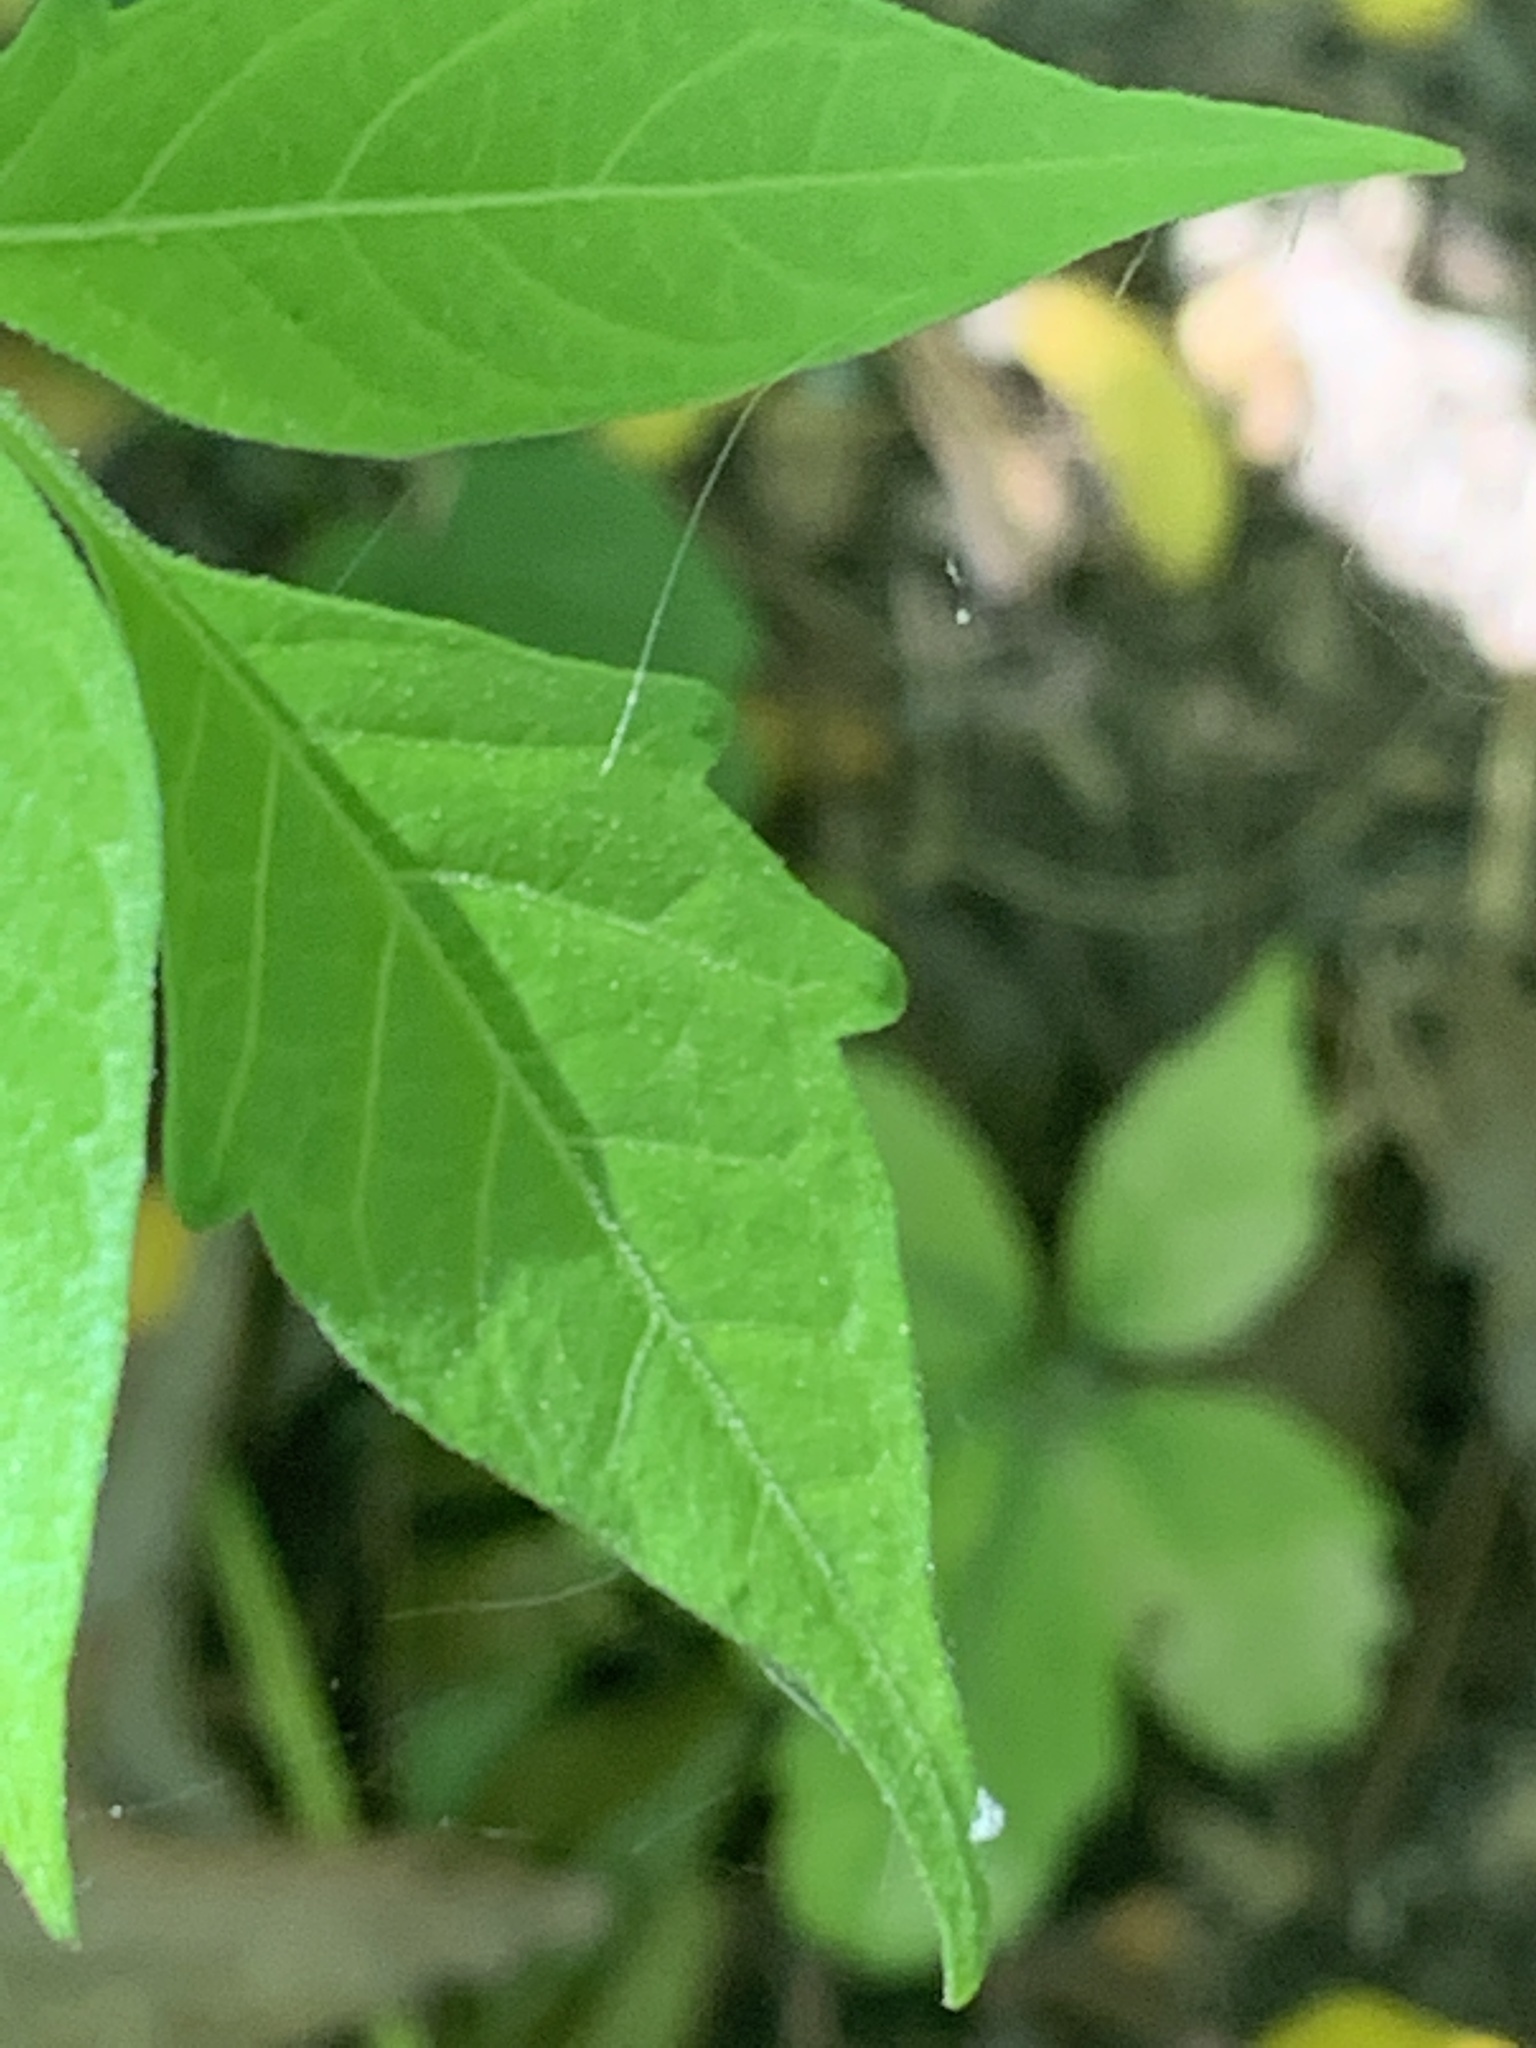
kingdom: Plantae
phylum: Tracheophyta
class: Magnoliopsida
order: Lamiales
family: Bignoniaceae
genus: Campsis
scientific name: Campsis radicans
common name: Trumpet-creeper
